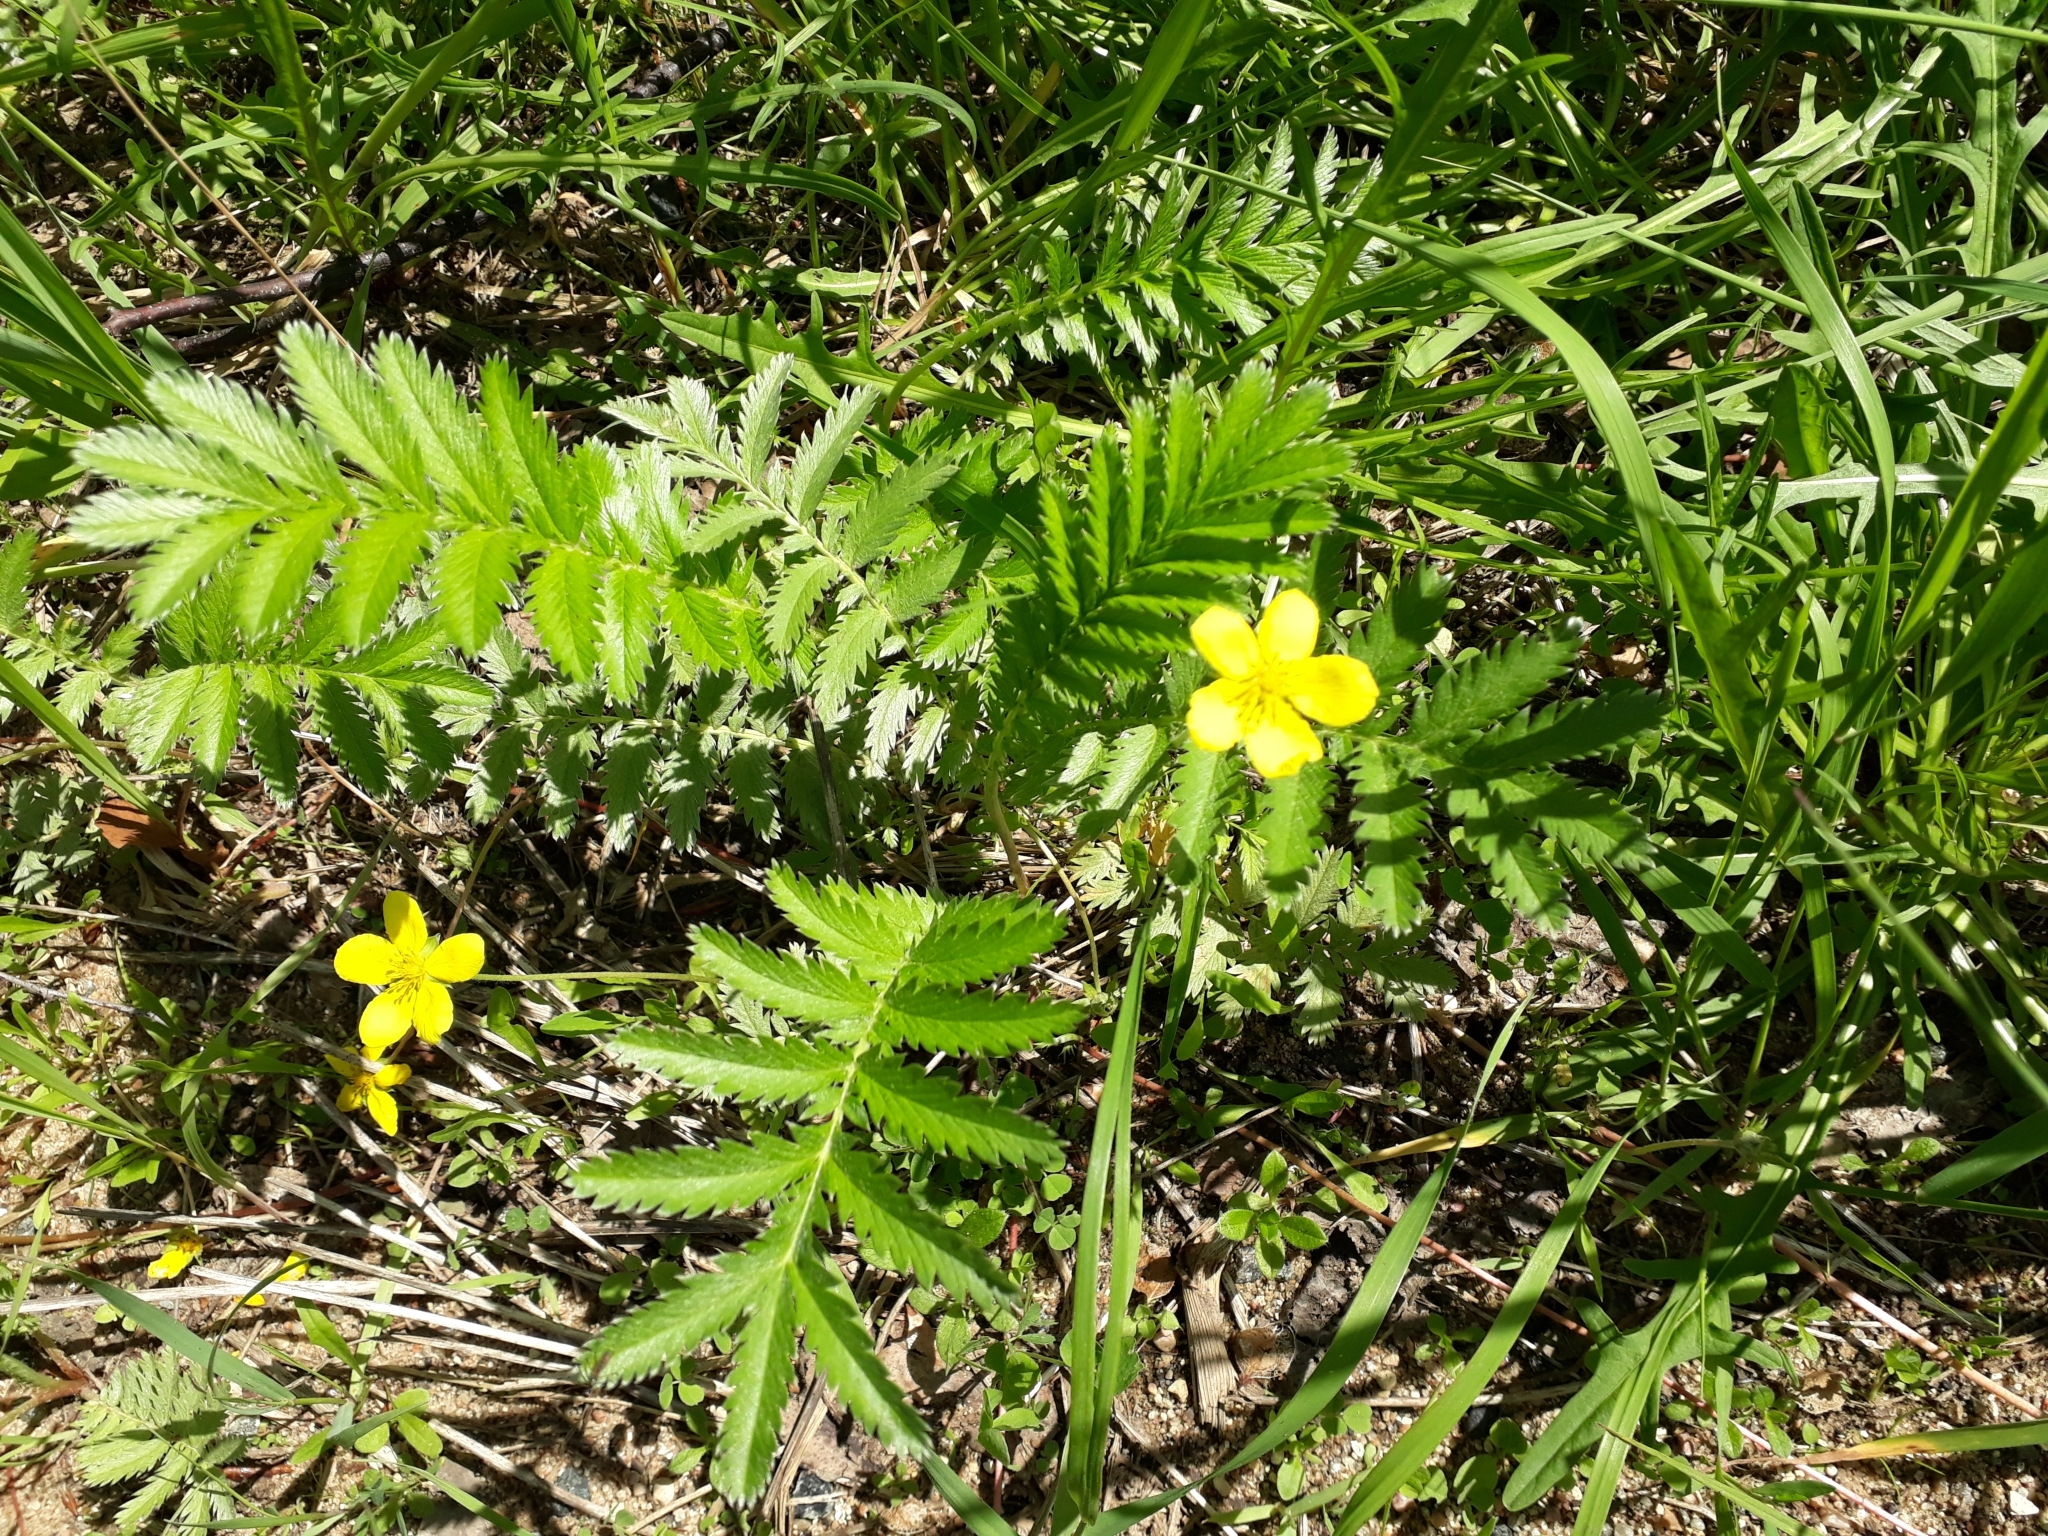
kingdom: Plantae
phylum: Tracheophyta
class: Magnoliopsida
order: Rosales
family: Rosaceae
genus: Argentina
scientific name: Argentina anserina
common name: Common silverweed
